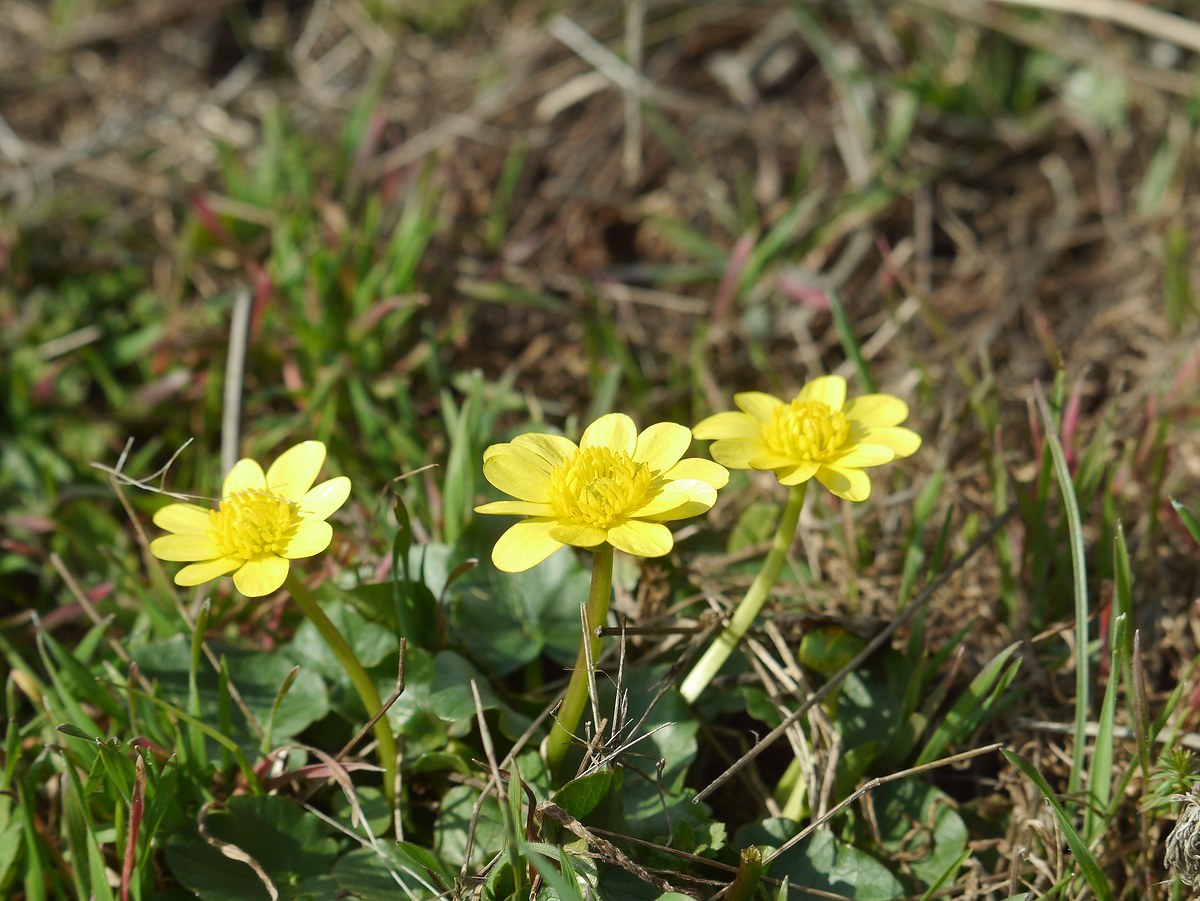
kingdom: Plantae
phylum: Tracheophyta
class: Magnoliopsida
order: Ranunculales
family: Ranunculaceae
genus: Ficaria
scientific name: Ficaria verna
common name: Lesser celandine
